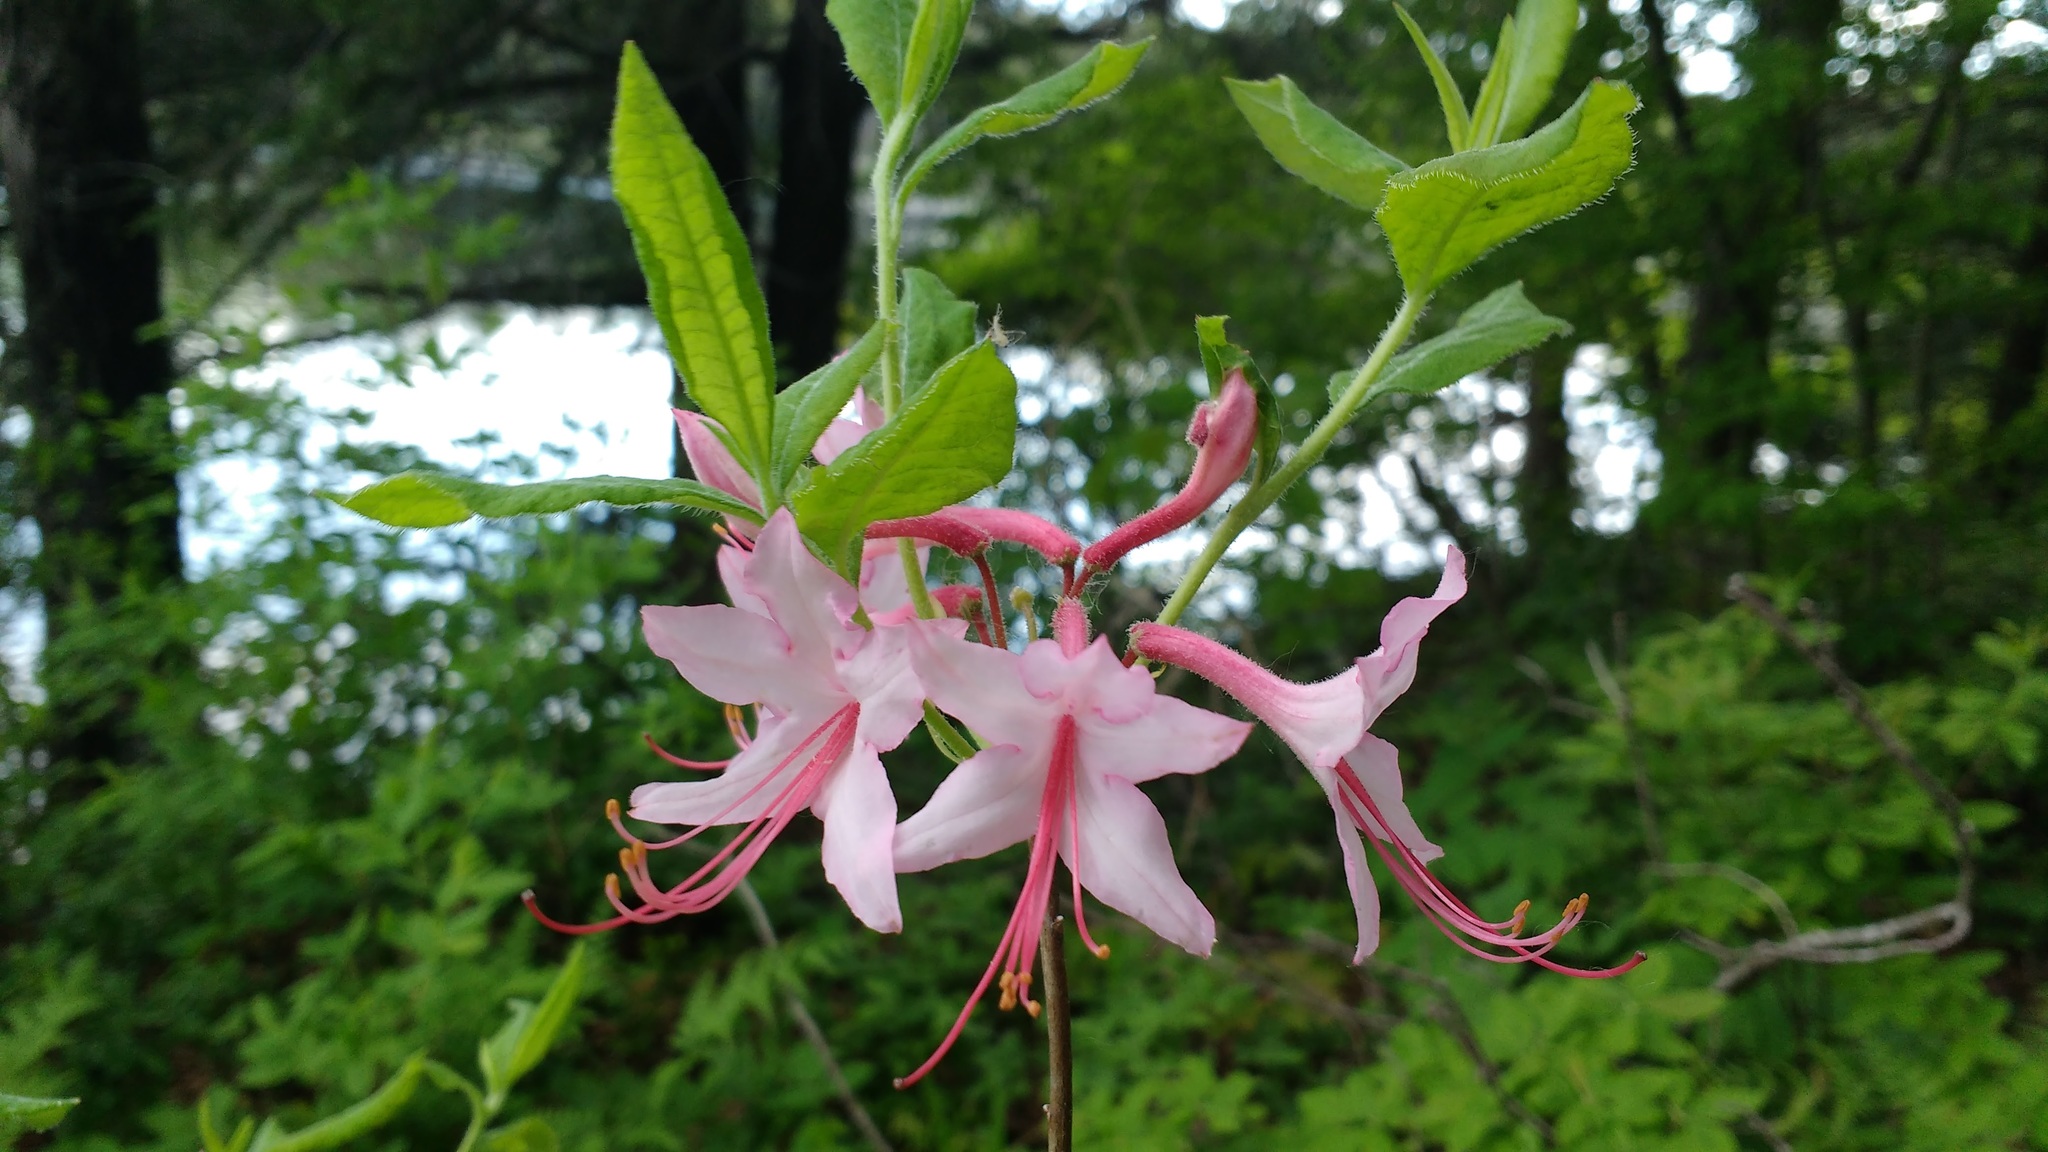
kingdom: Plantae
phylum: Tracheophyta
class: Magnoliopsida
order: Ericales
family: Ericaceae
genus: Rhododendron
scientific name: Rhododendron periclymenoides
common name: Election-pink
